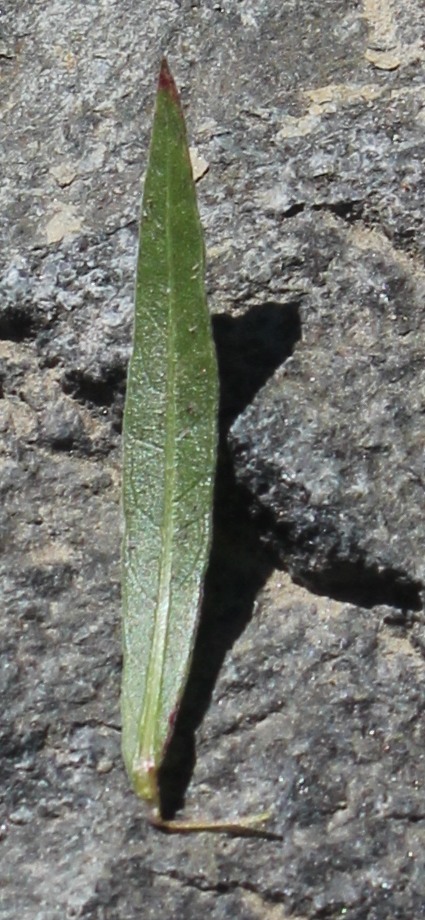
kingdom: Plantae
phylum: Tracheophyta
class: Magnoliopsida
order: Myrtales
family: Onagraceae
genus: Oenothera
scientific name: Oenothera lindheimeri
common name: Lindheimer's beeblossom
